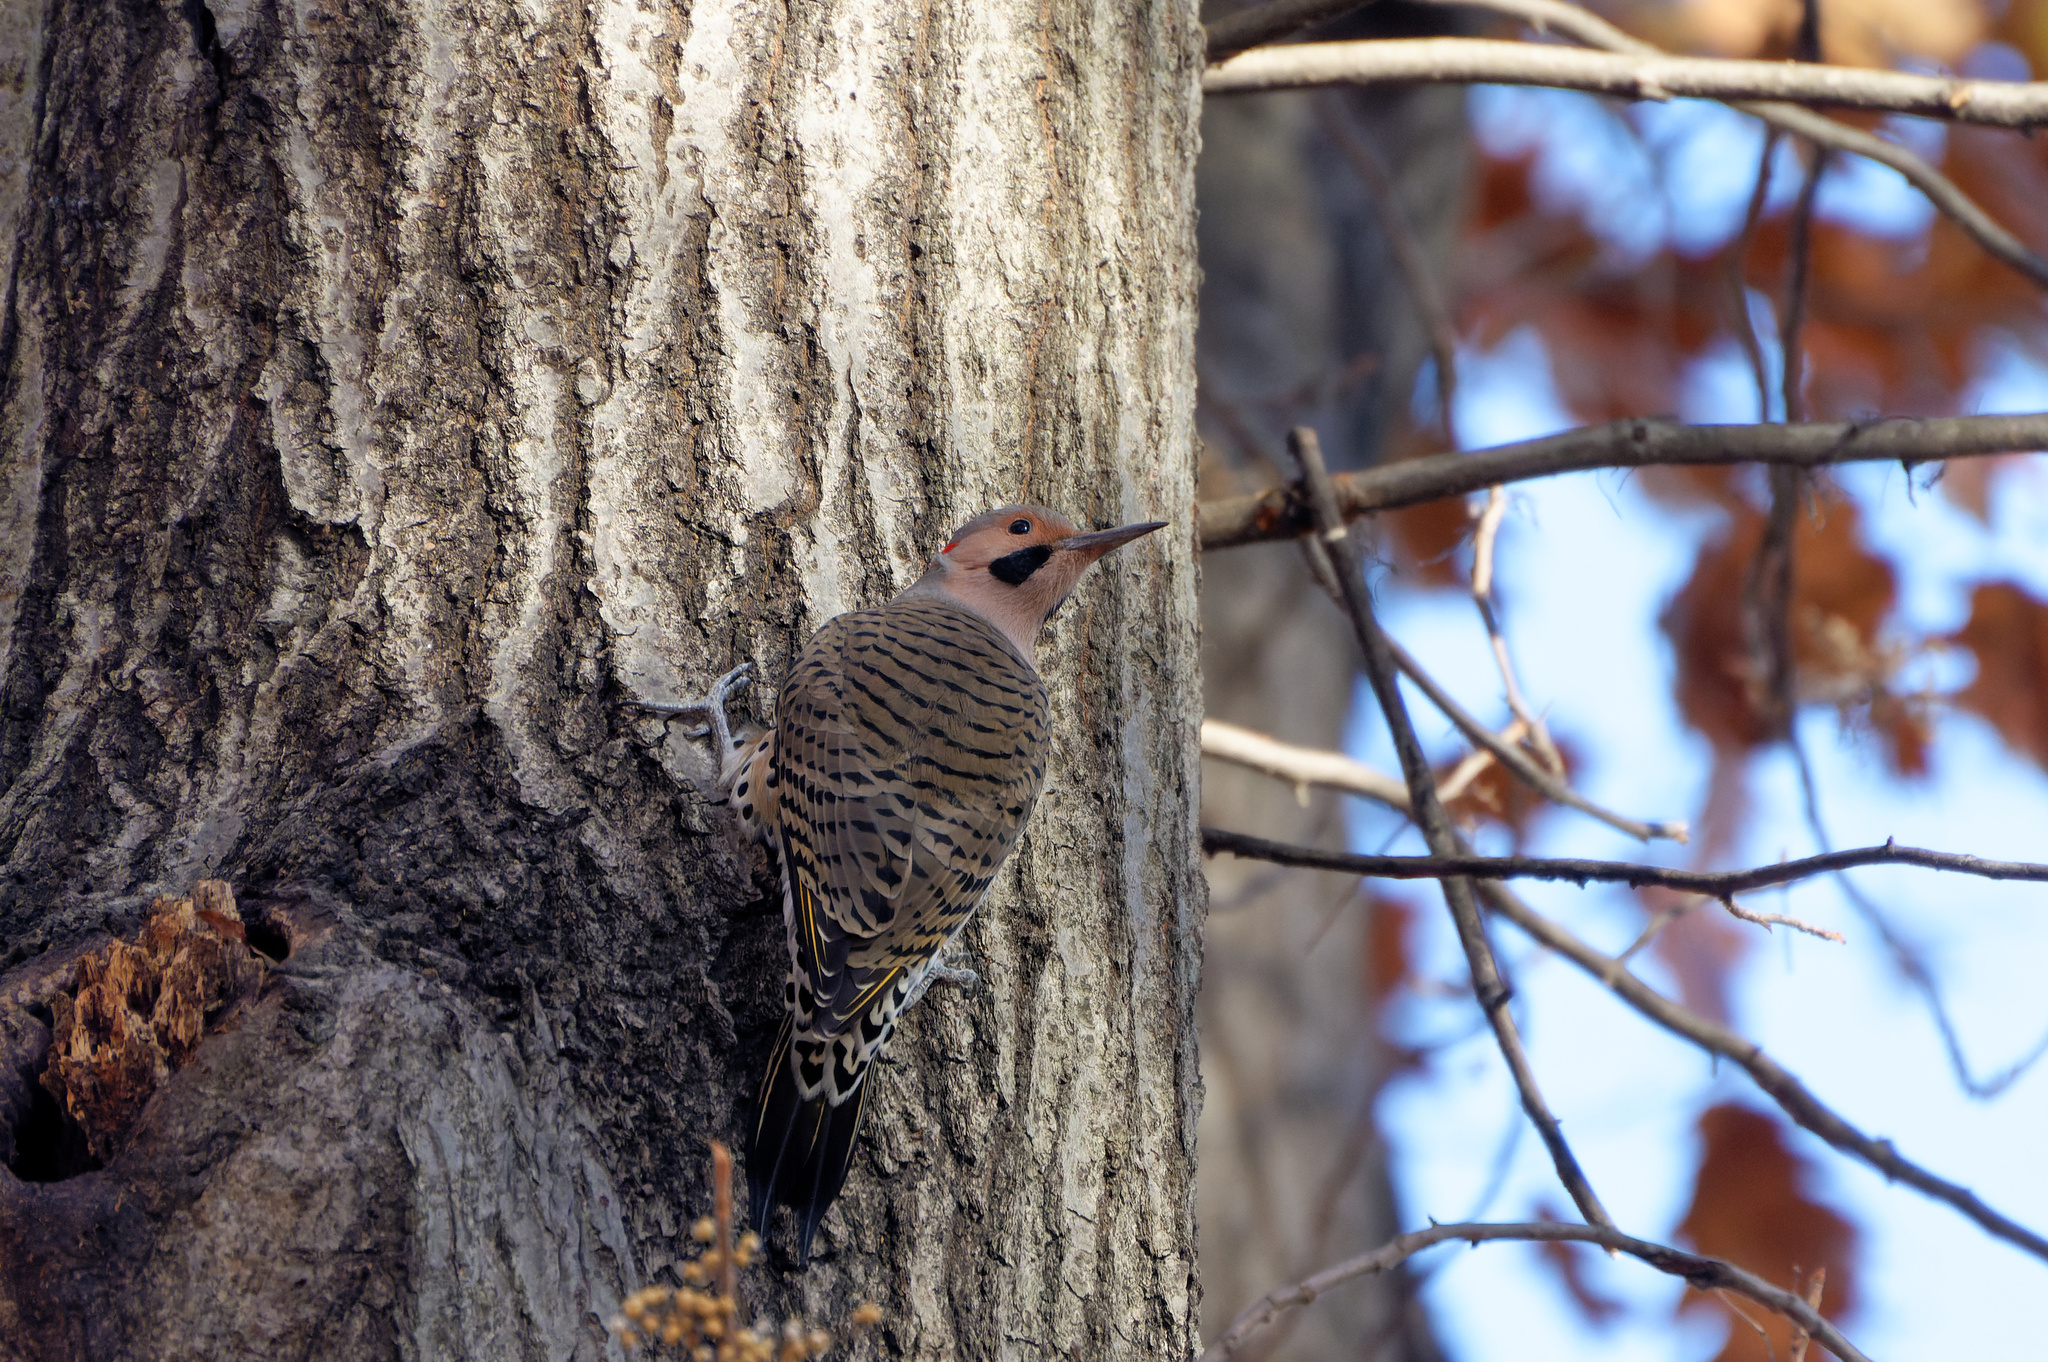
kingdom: Animalia
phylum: Chordata
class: Aves
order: Piciformes
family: Picidae
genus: Colaptes
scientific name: Colaptes auratus
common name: Northern flicker
